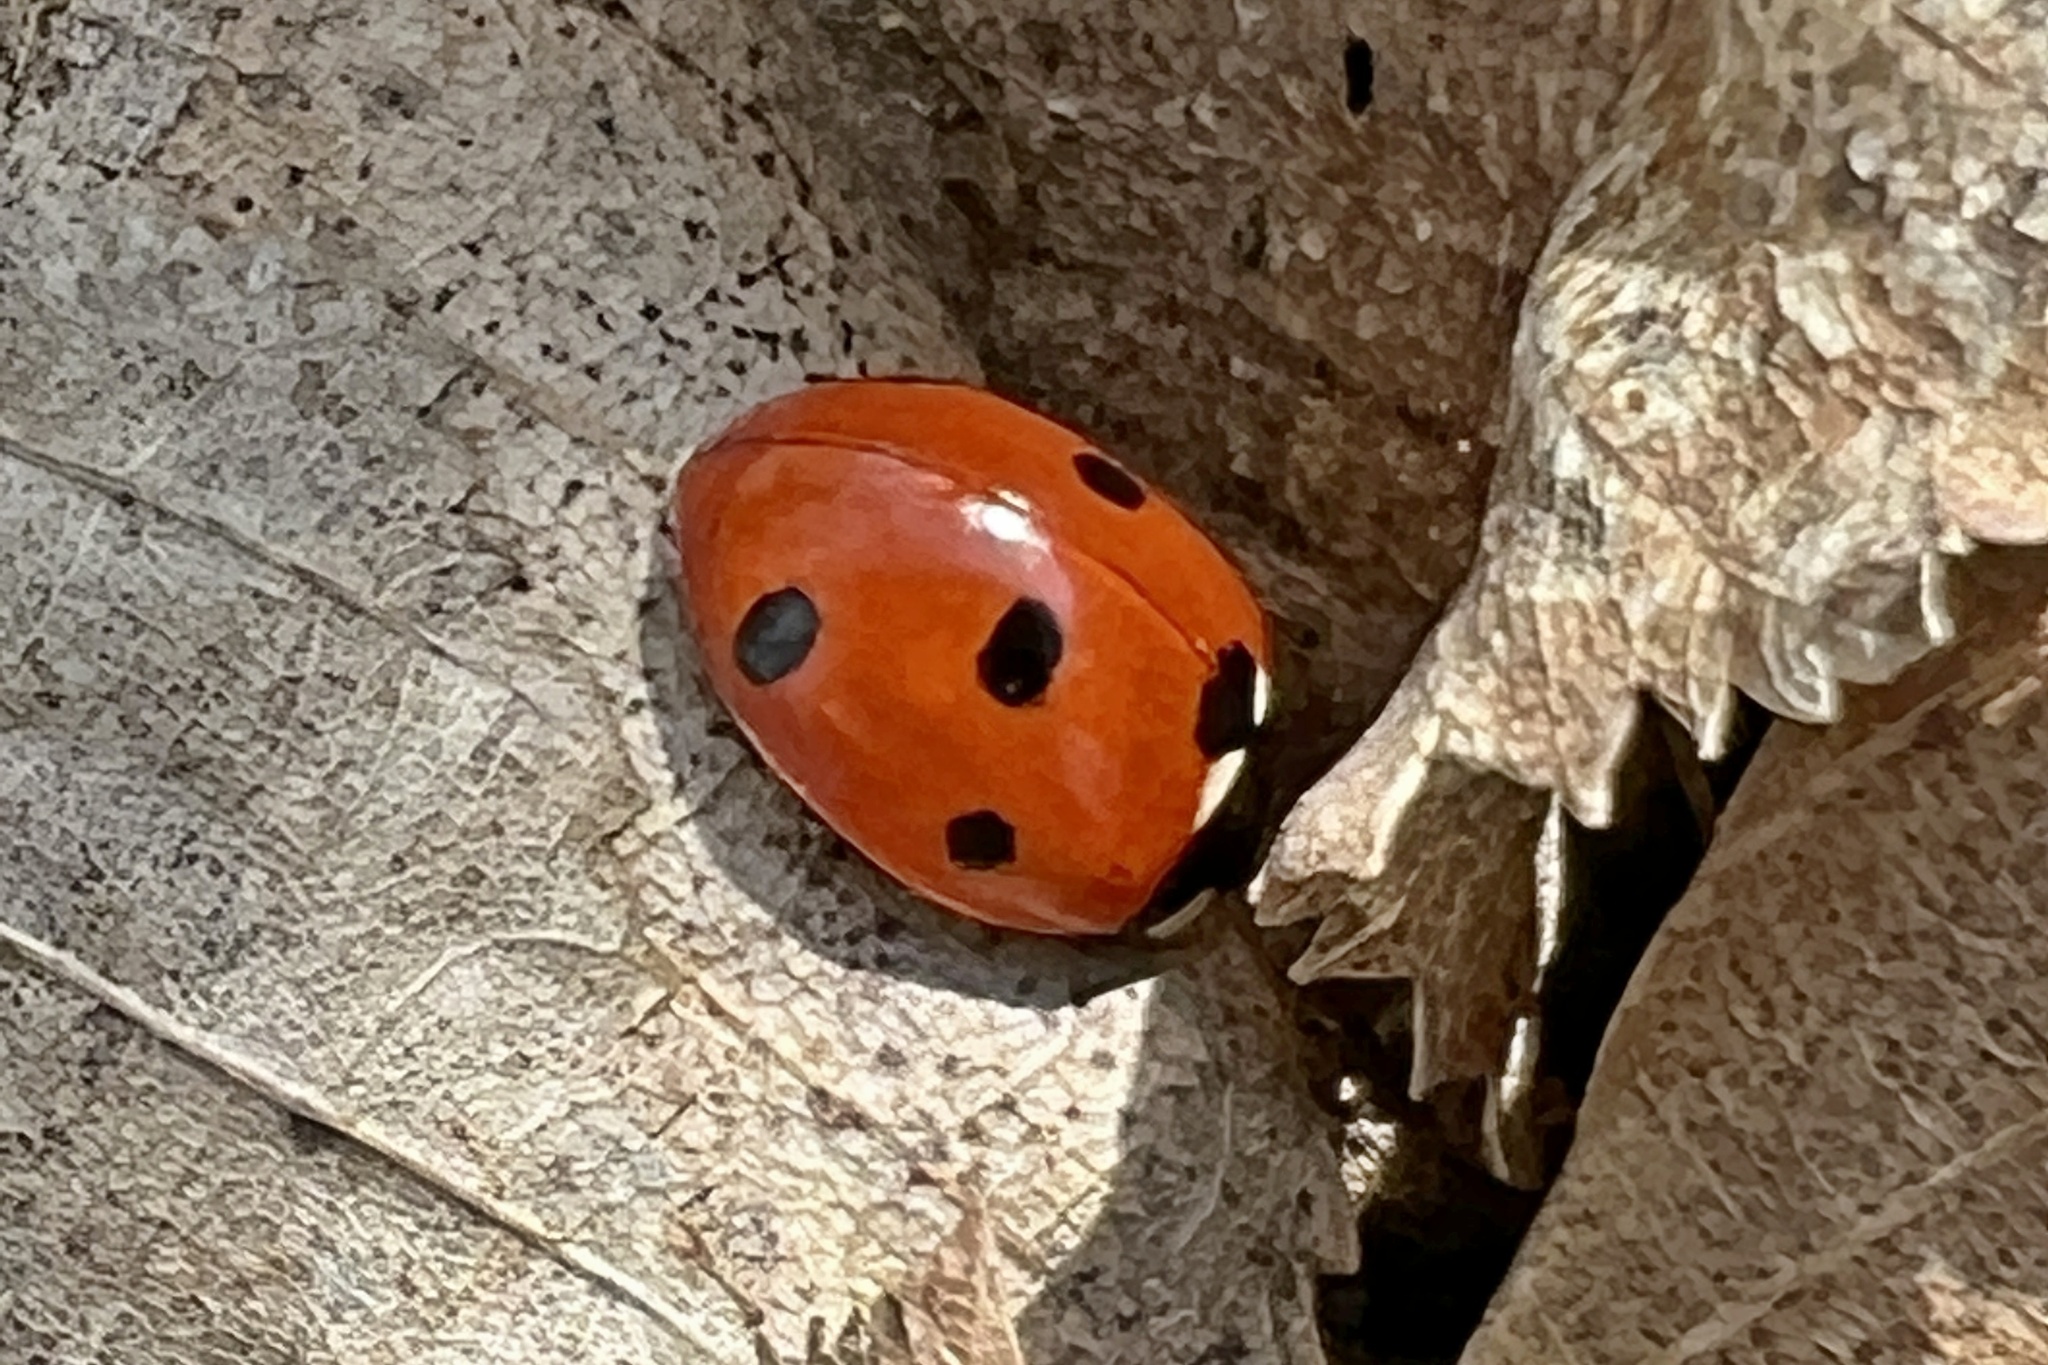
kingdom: Animalia
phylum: Arthropoda
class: Insecta
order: Coleoptera
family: Coccinellidae
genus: Coccinella
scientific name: Coccinella septempunctata
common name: Sevenspotted lady beetle
